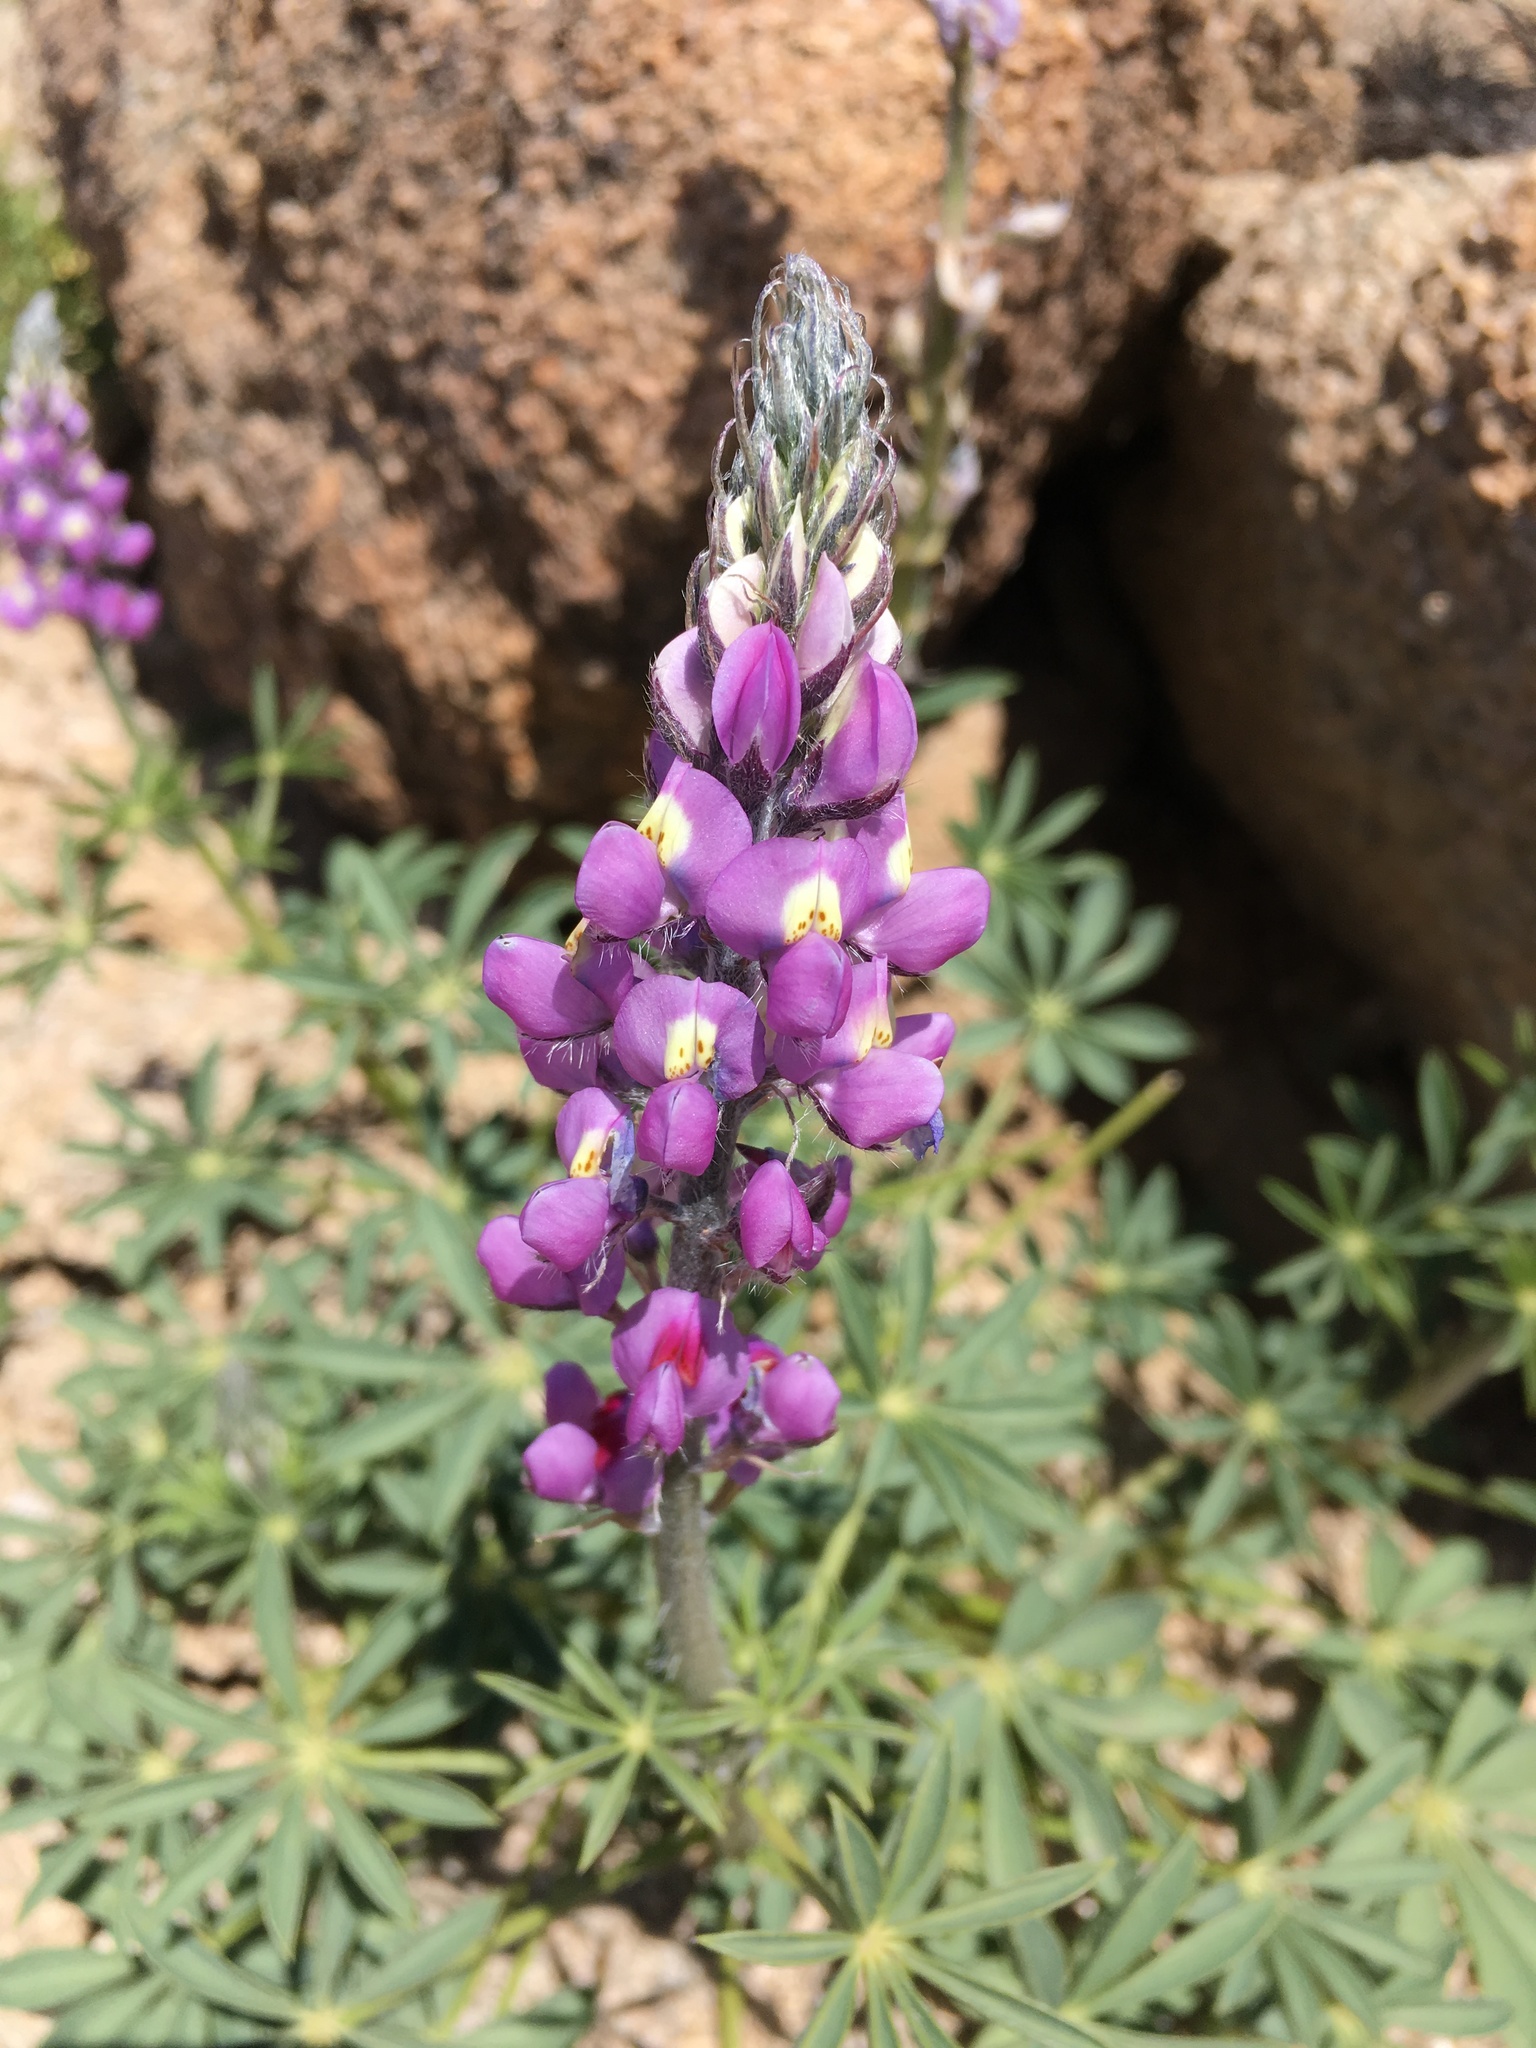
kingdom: Plantae
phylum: Tracheophyta
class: Magnoliopsida
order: Fabales
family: Fabaceae
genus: Lupinus
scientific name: Lupinus arizonicus
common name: Arizona lupine
